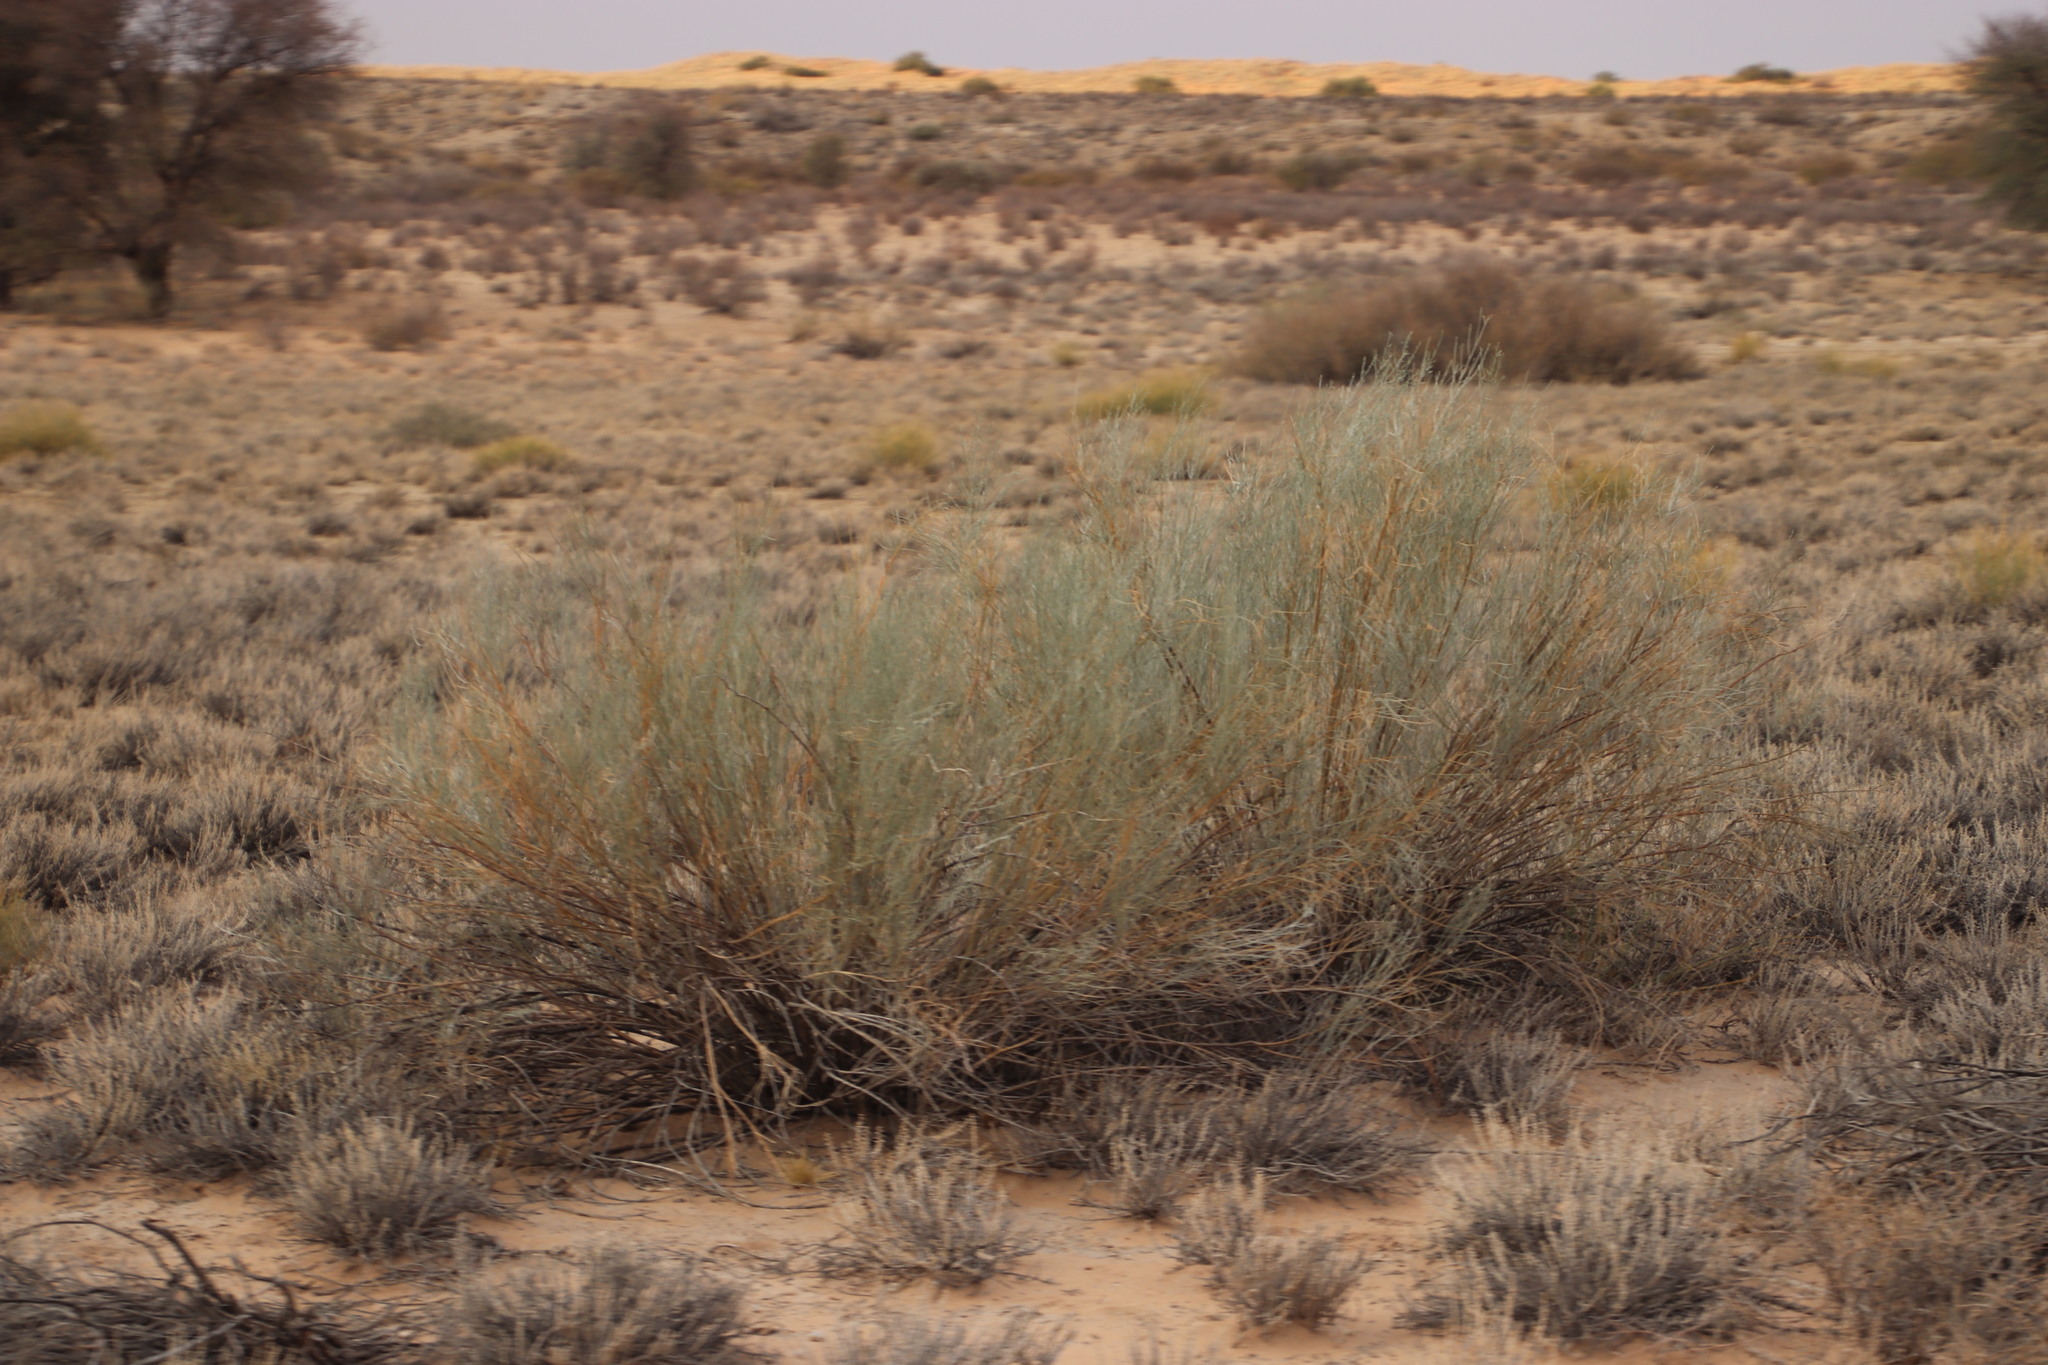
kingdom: Plantae
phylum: Tracheophyta
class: Magnoliopsida
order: Malvales
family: Thymelaeaceae
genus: Gnidia
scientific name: Gnidia polycephala
